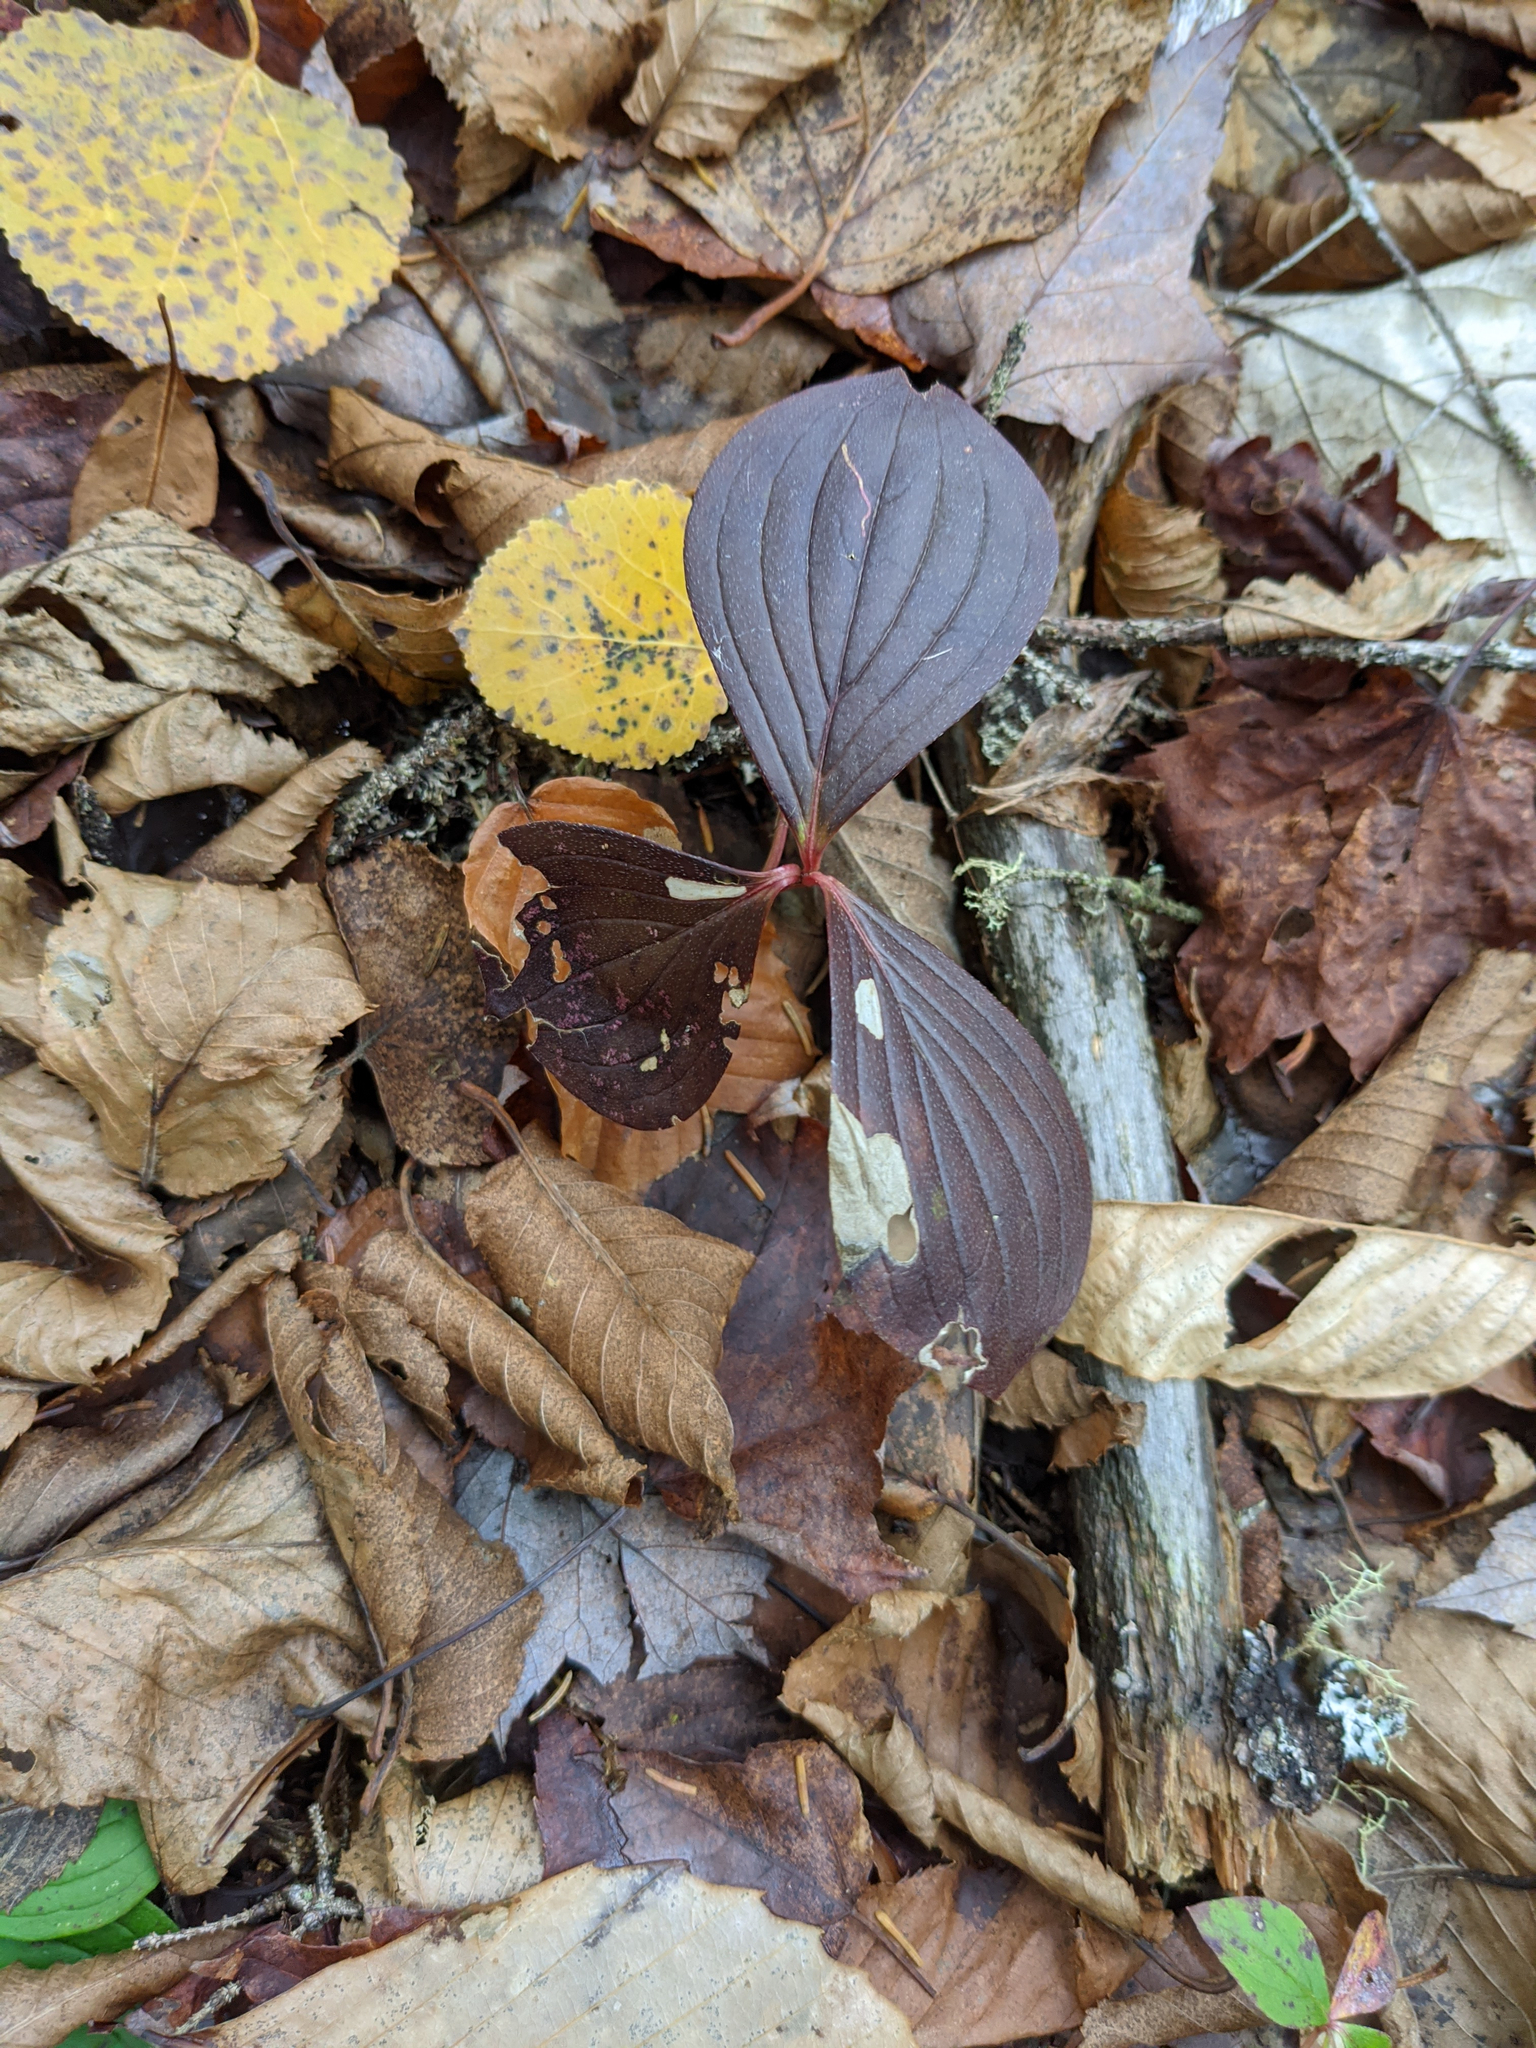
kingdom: Plantae
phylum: Tracheophyta
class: Magnoliopsida
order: Cornales
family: Cornaceae
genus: Cornus
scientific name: Cornus canadensis
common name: Creeping dogwood
